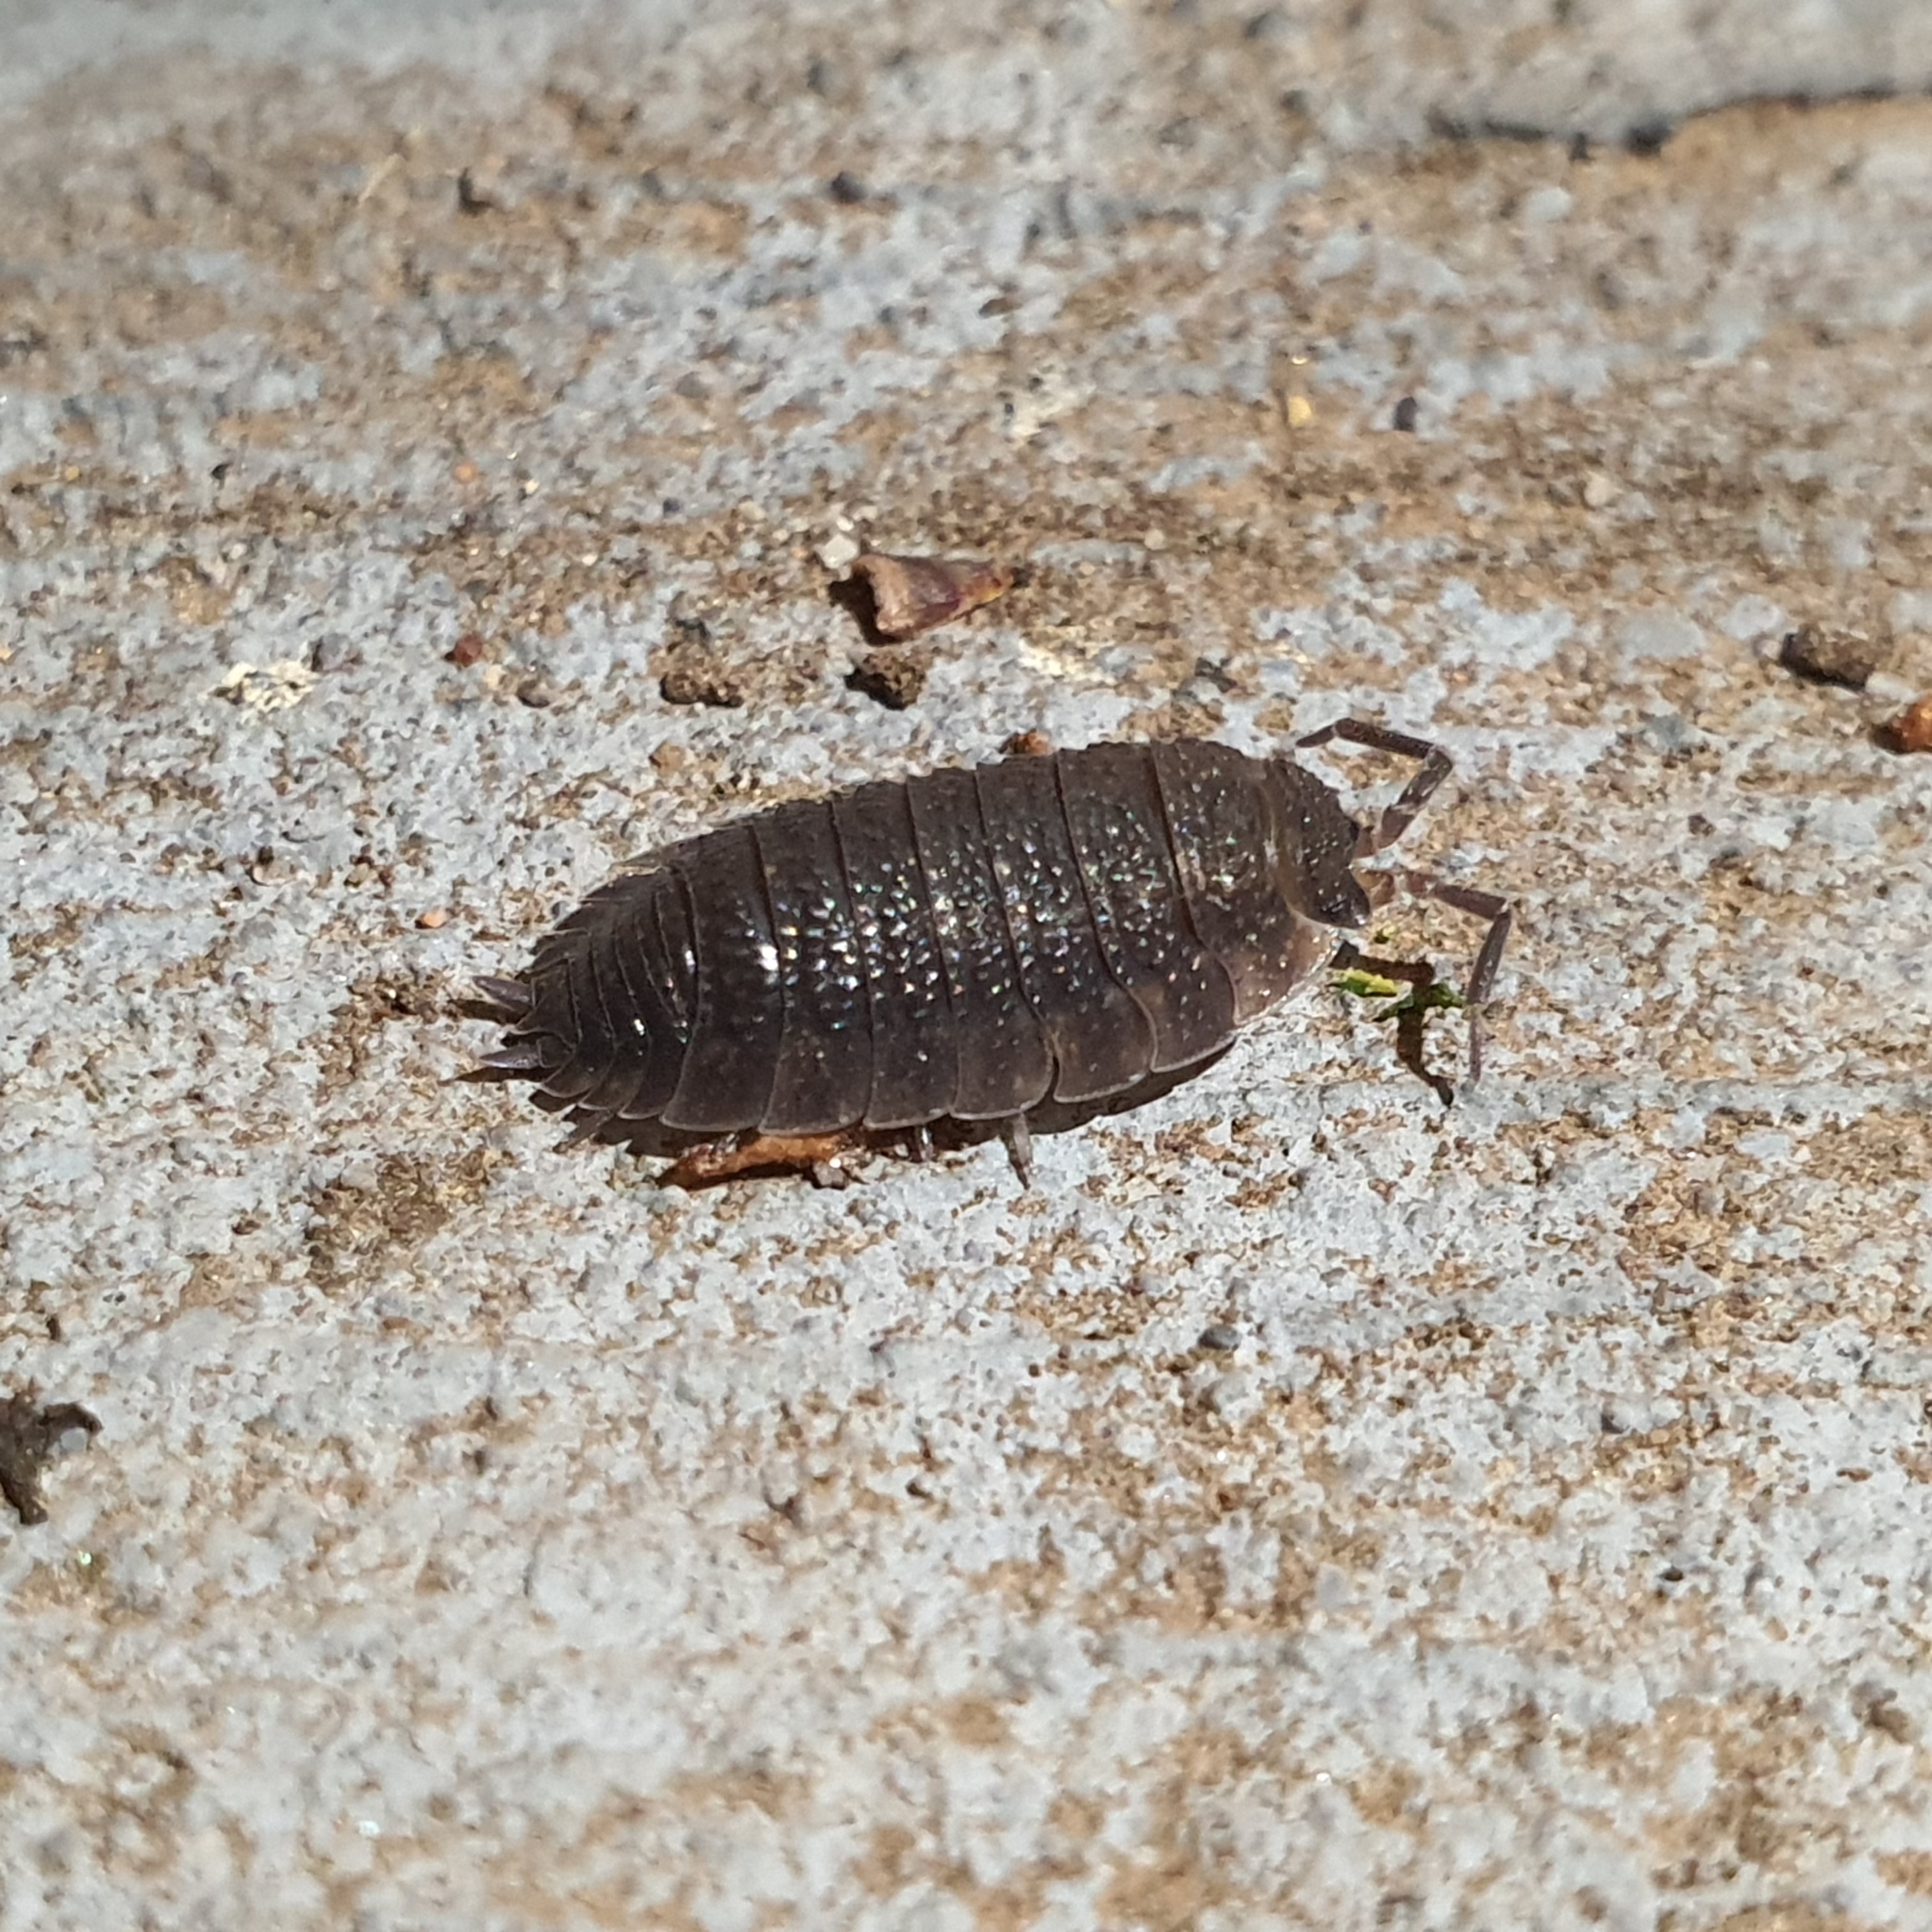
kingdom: Animalia
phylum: Arthropoda
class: Malacostraca
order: Isopoda
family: Porcellionidae
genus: Porcellio
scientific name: Porcellio scaber
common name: Common rough woodlouse
